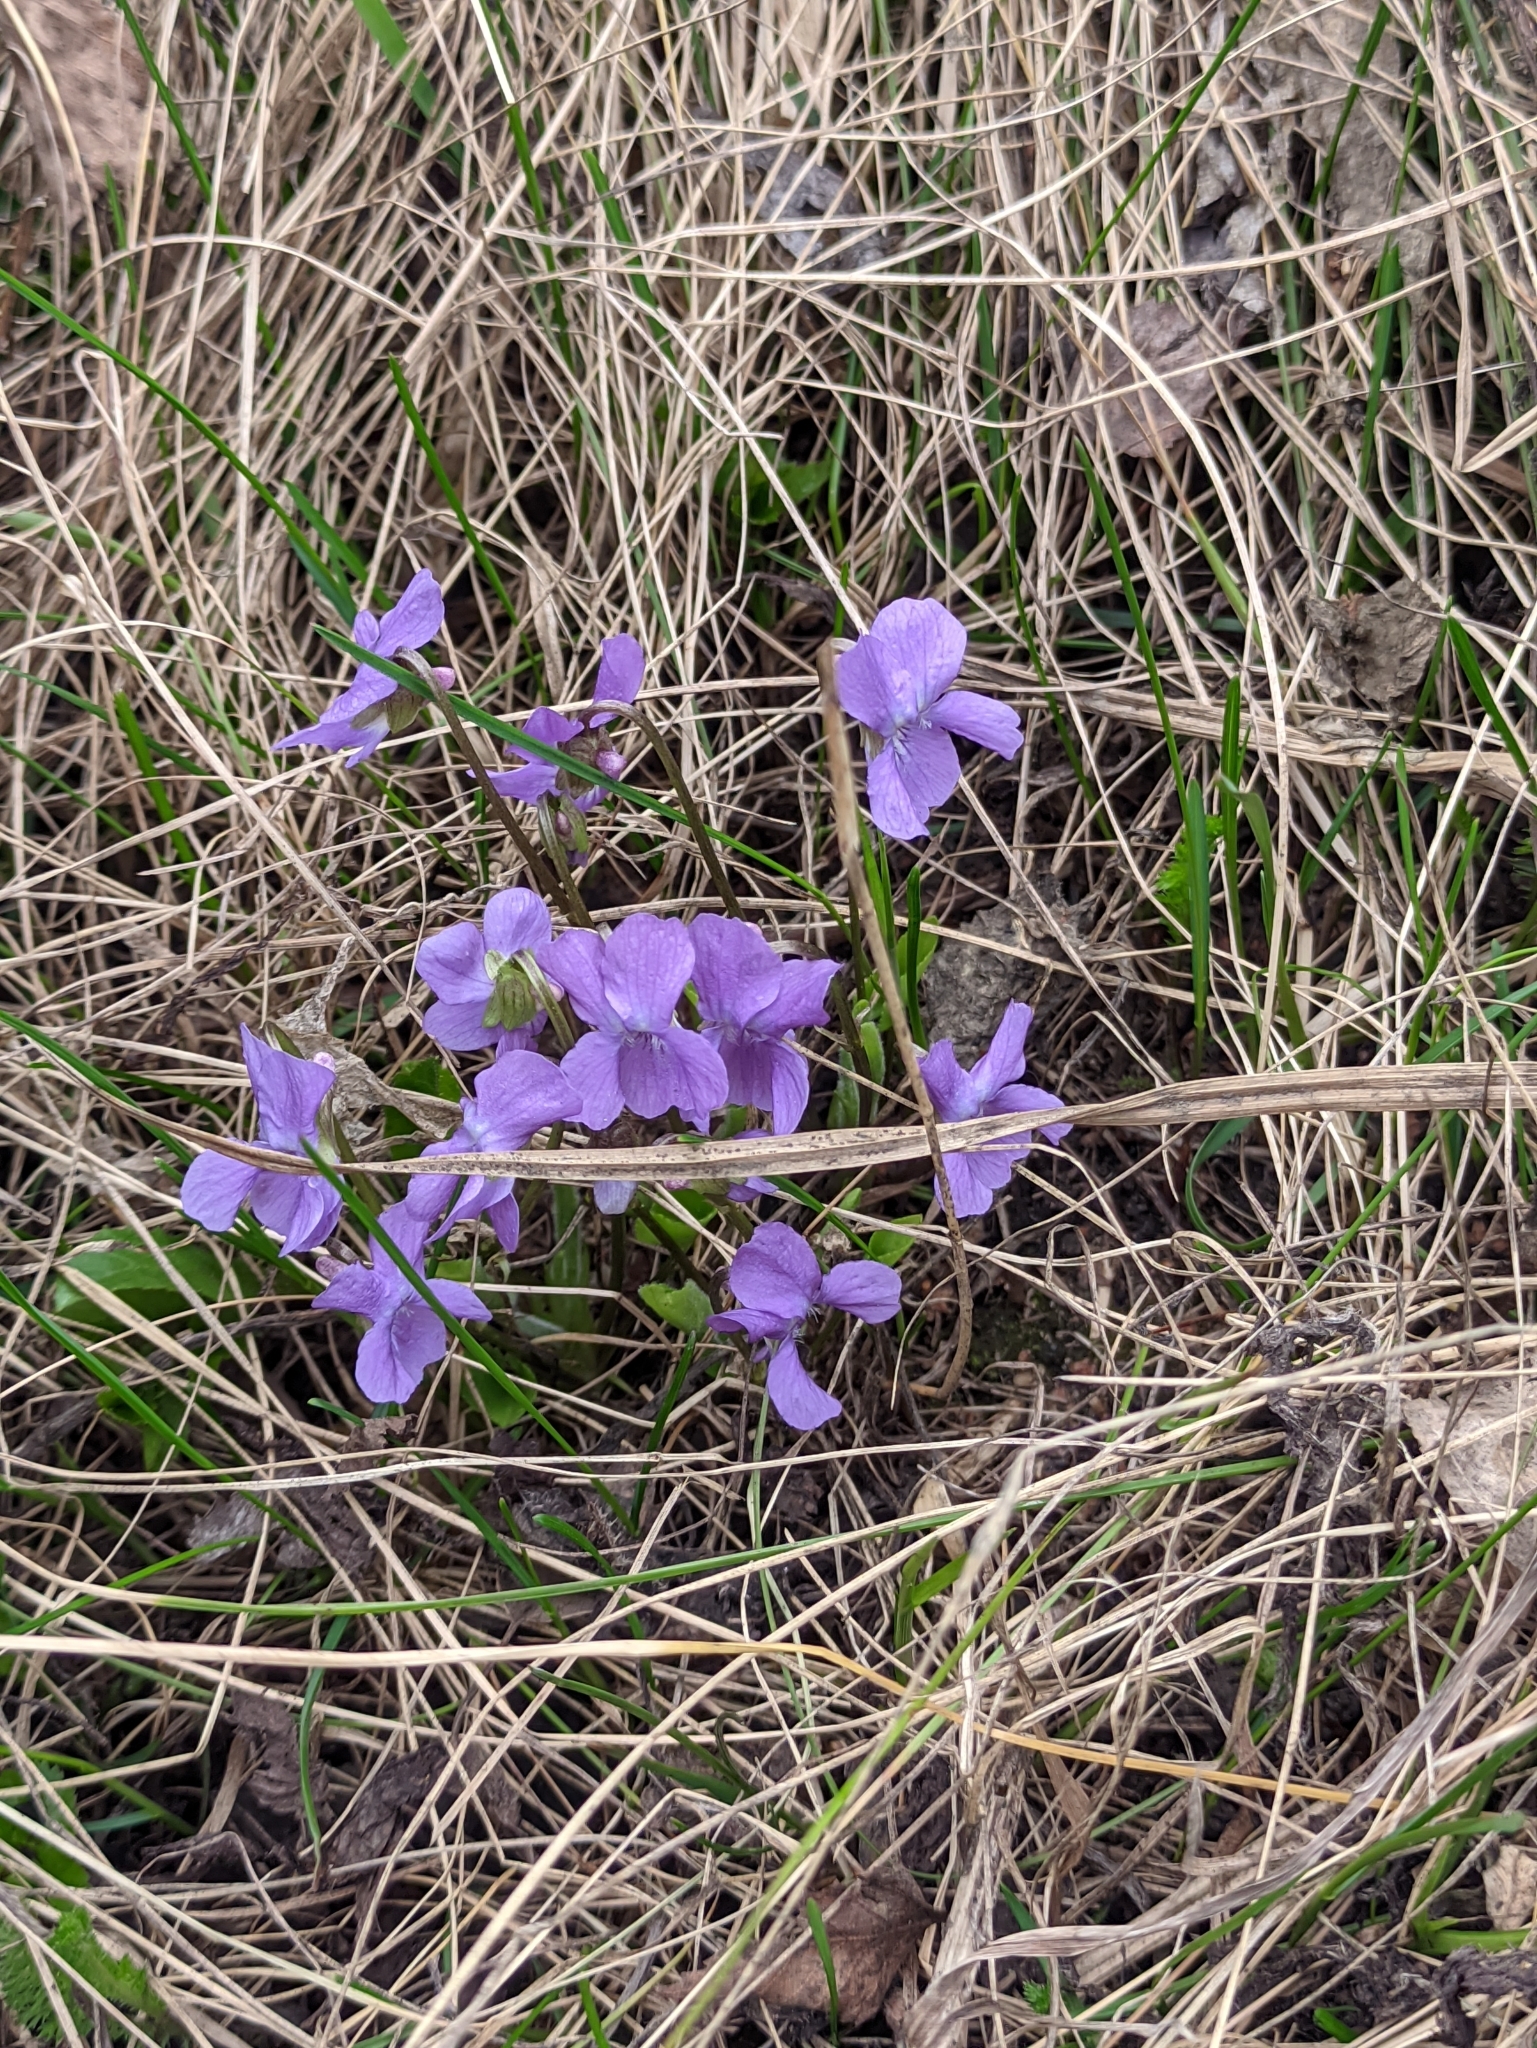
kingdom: Plantae
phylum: Tracheophyta
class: Magnoliopsida
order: Malpighiales
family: Violaceae
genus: Viola
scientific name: Viola hirta
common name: Hairy violet
